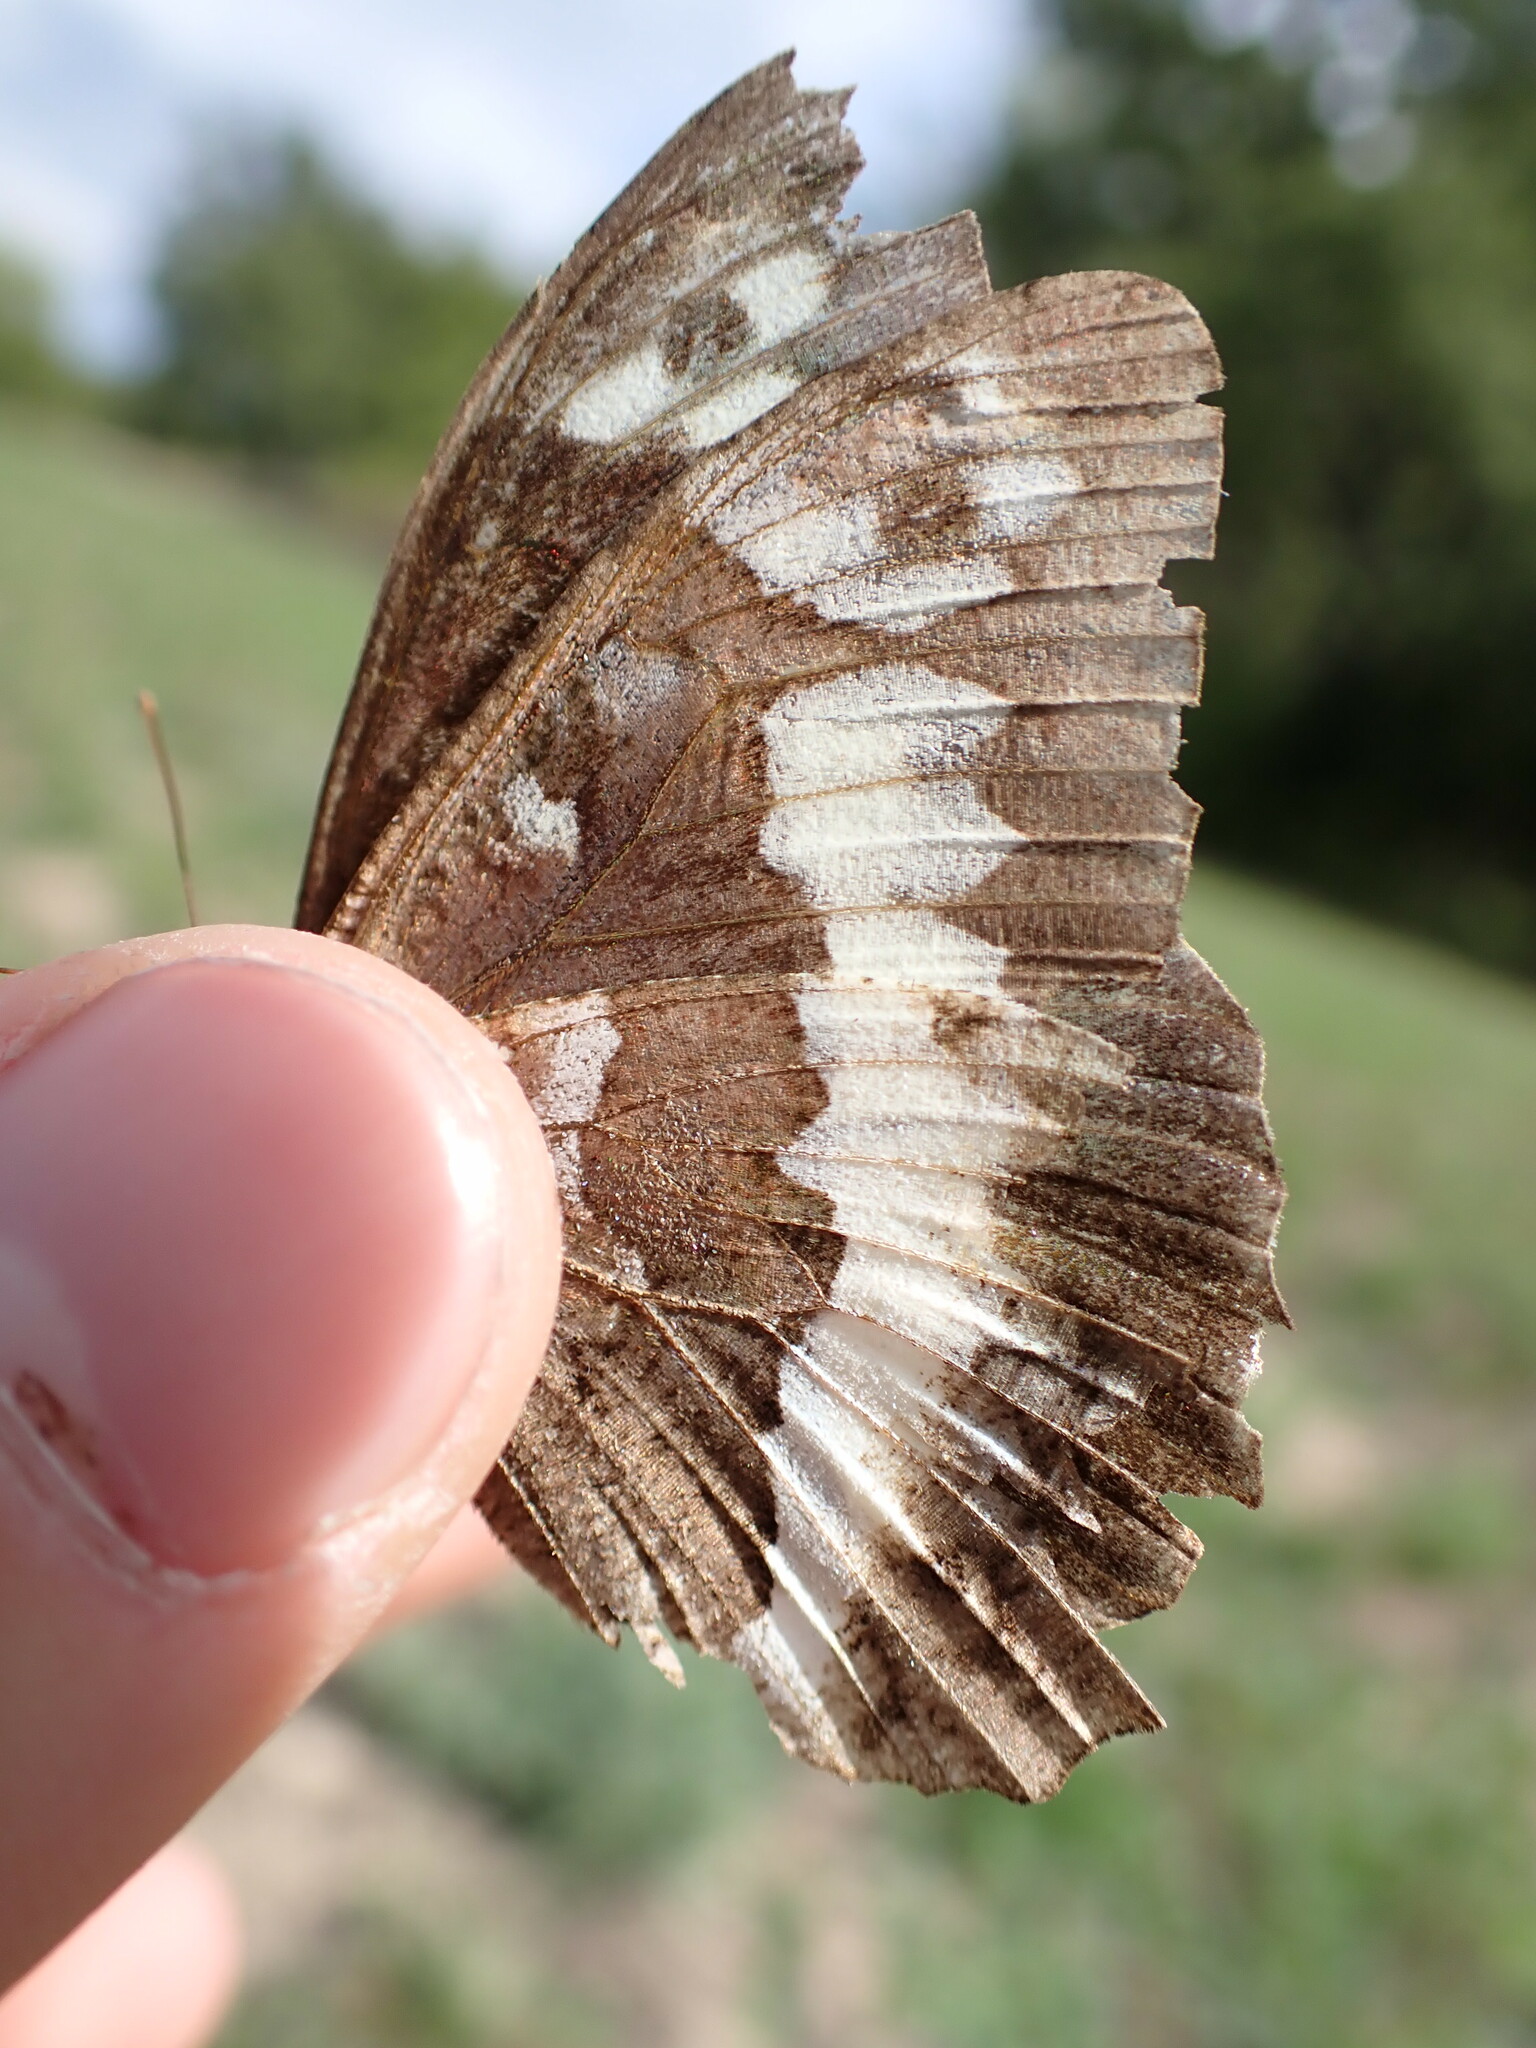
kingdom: Animalia
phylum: Arthropoda
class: Insecta
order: Lepidoptera
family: Lycaenidae
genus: Loweia
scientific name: Loweia tityrus
